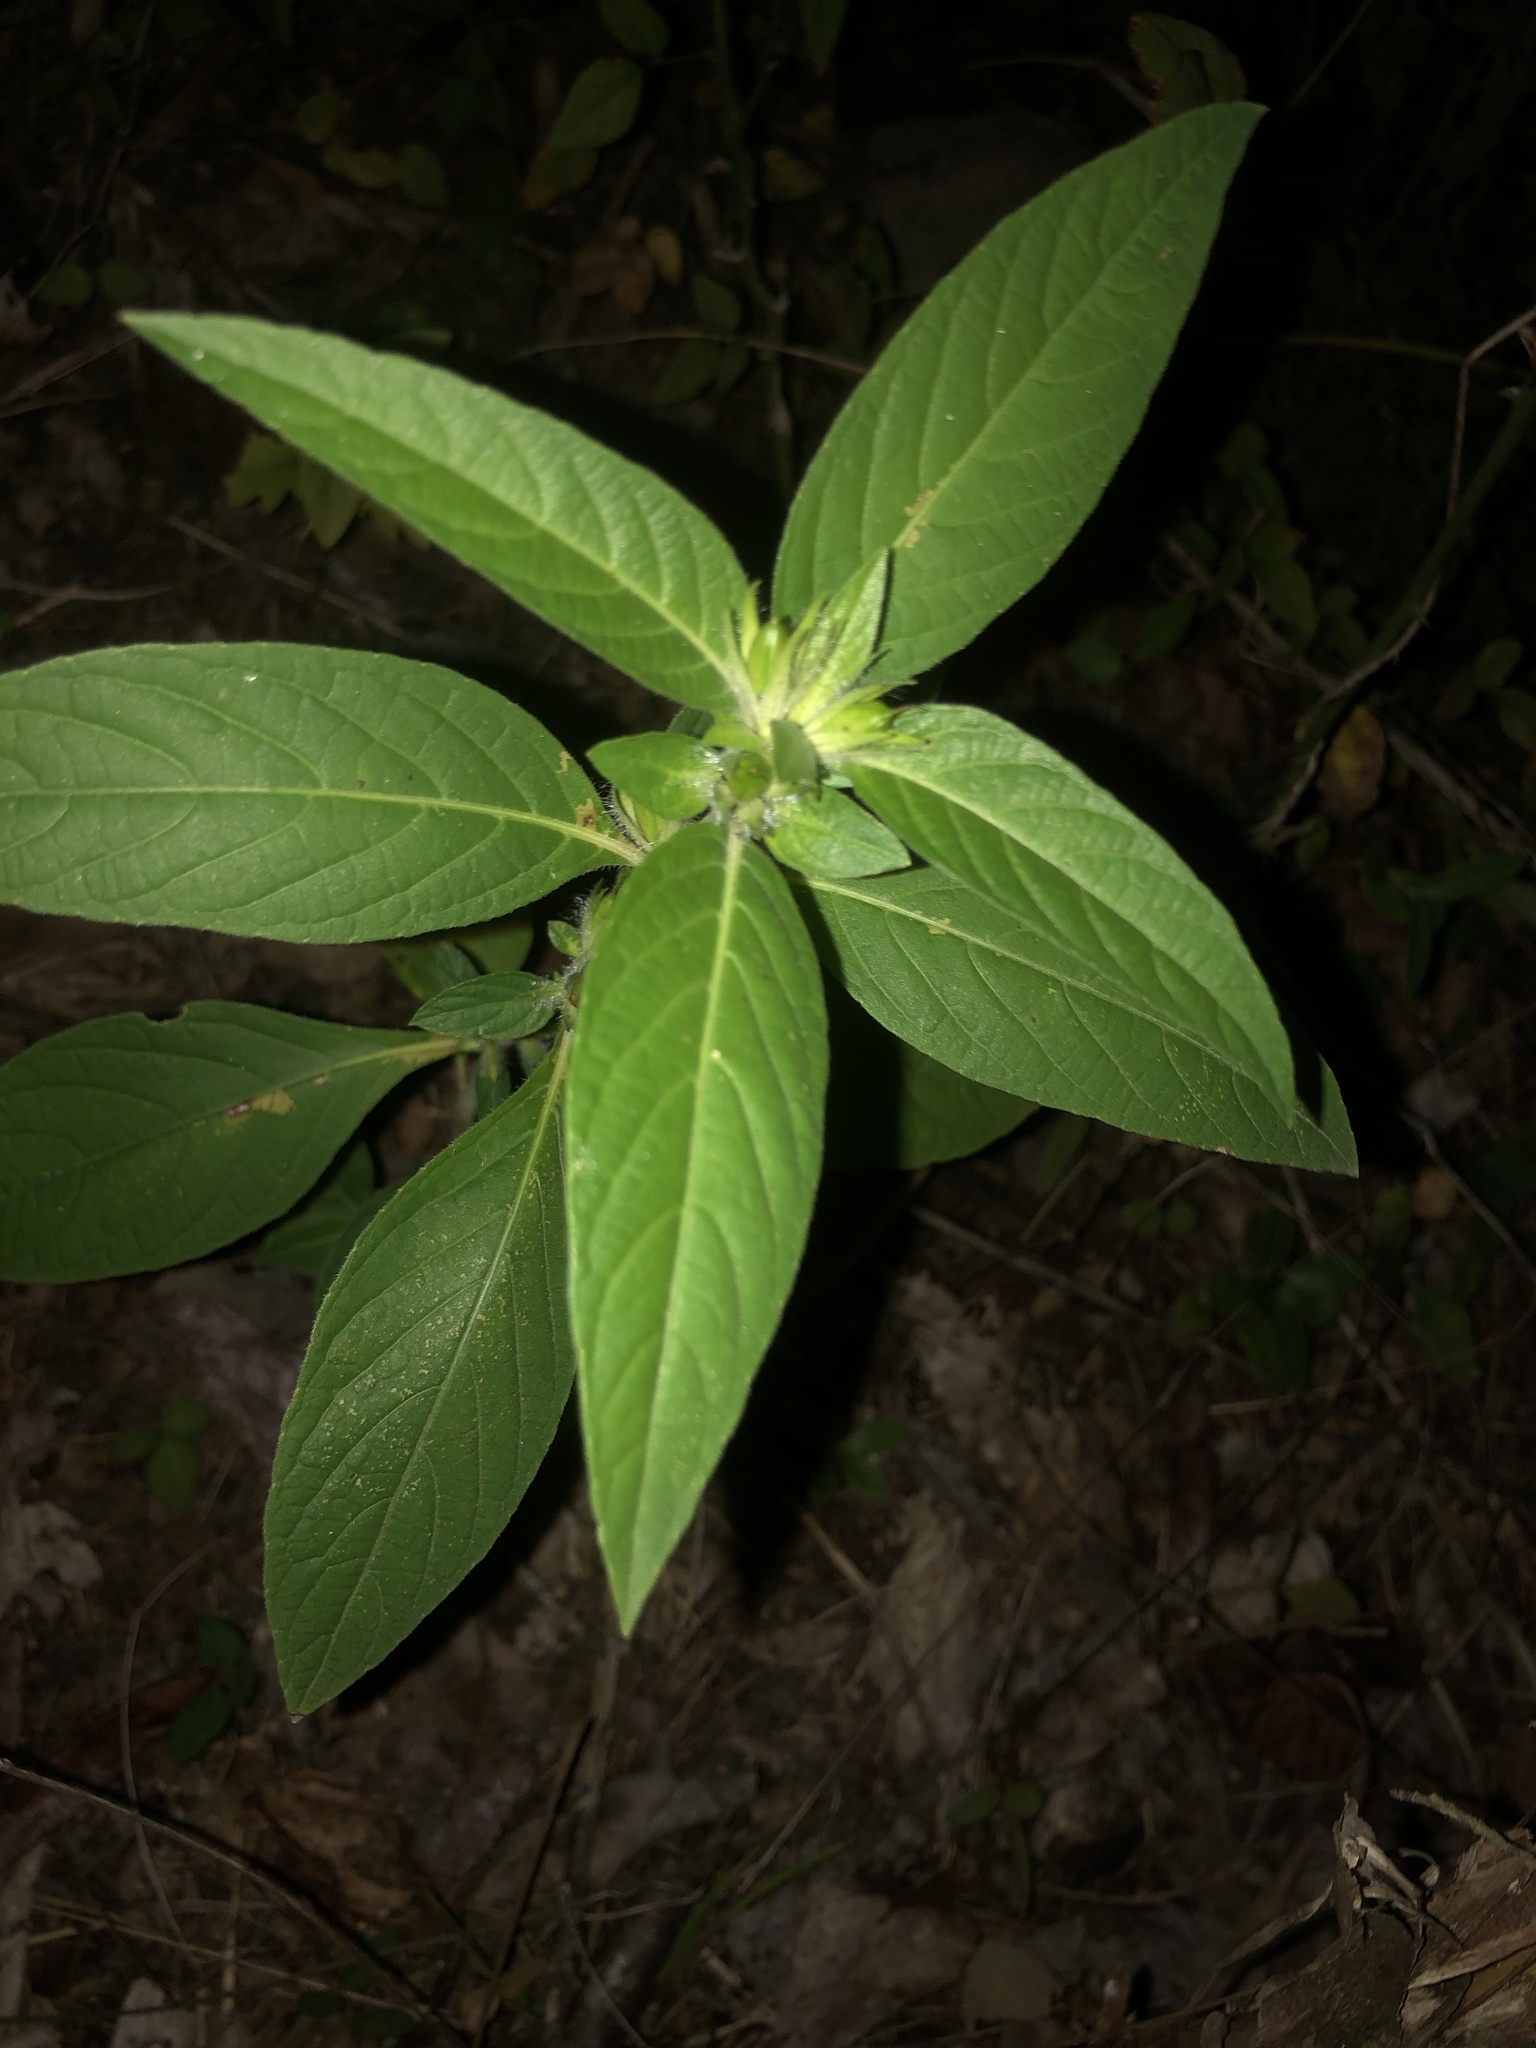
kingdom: Plantae
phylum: Tracheophyta
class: Magnoliopsida
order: Lamiales
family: Acanthaceae
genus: Ruellia
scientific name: Ruellia strepens
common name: Limestone wild petunia
